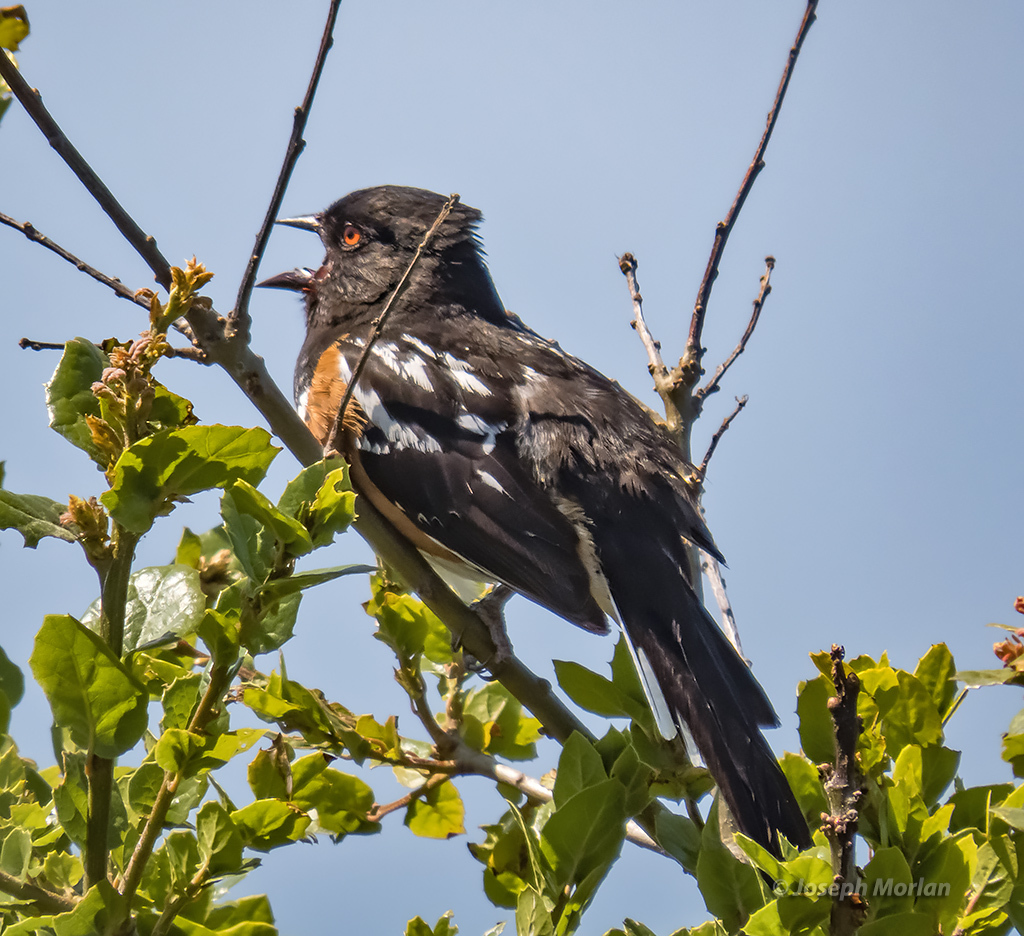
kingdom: Animalia
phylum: Chordata
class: Aves
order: Passeriformes
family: Passerellidae
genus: Pipilo
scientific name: Pipilo maculatus
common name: Spotted towhee
